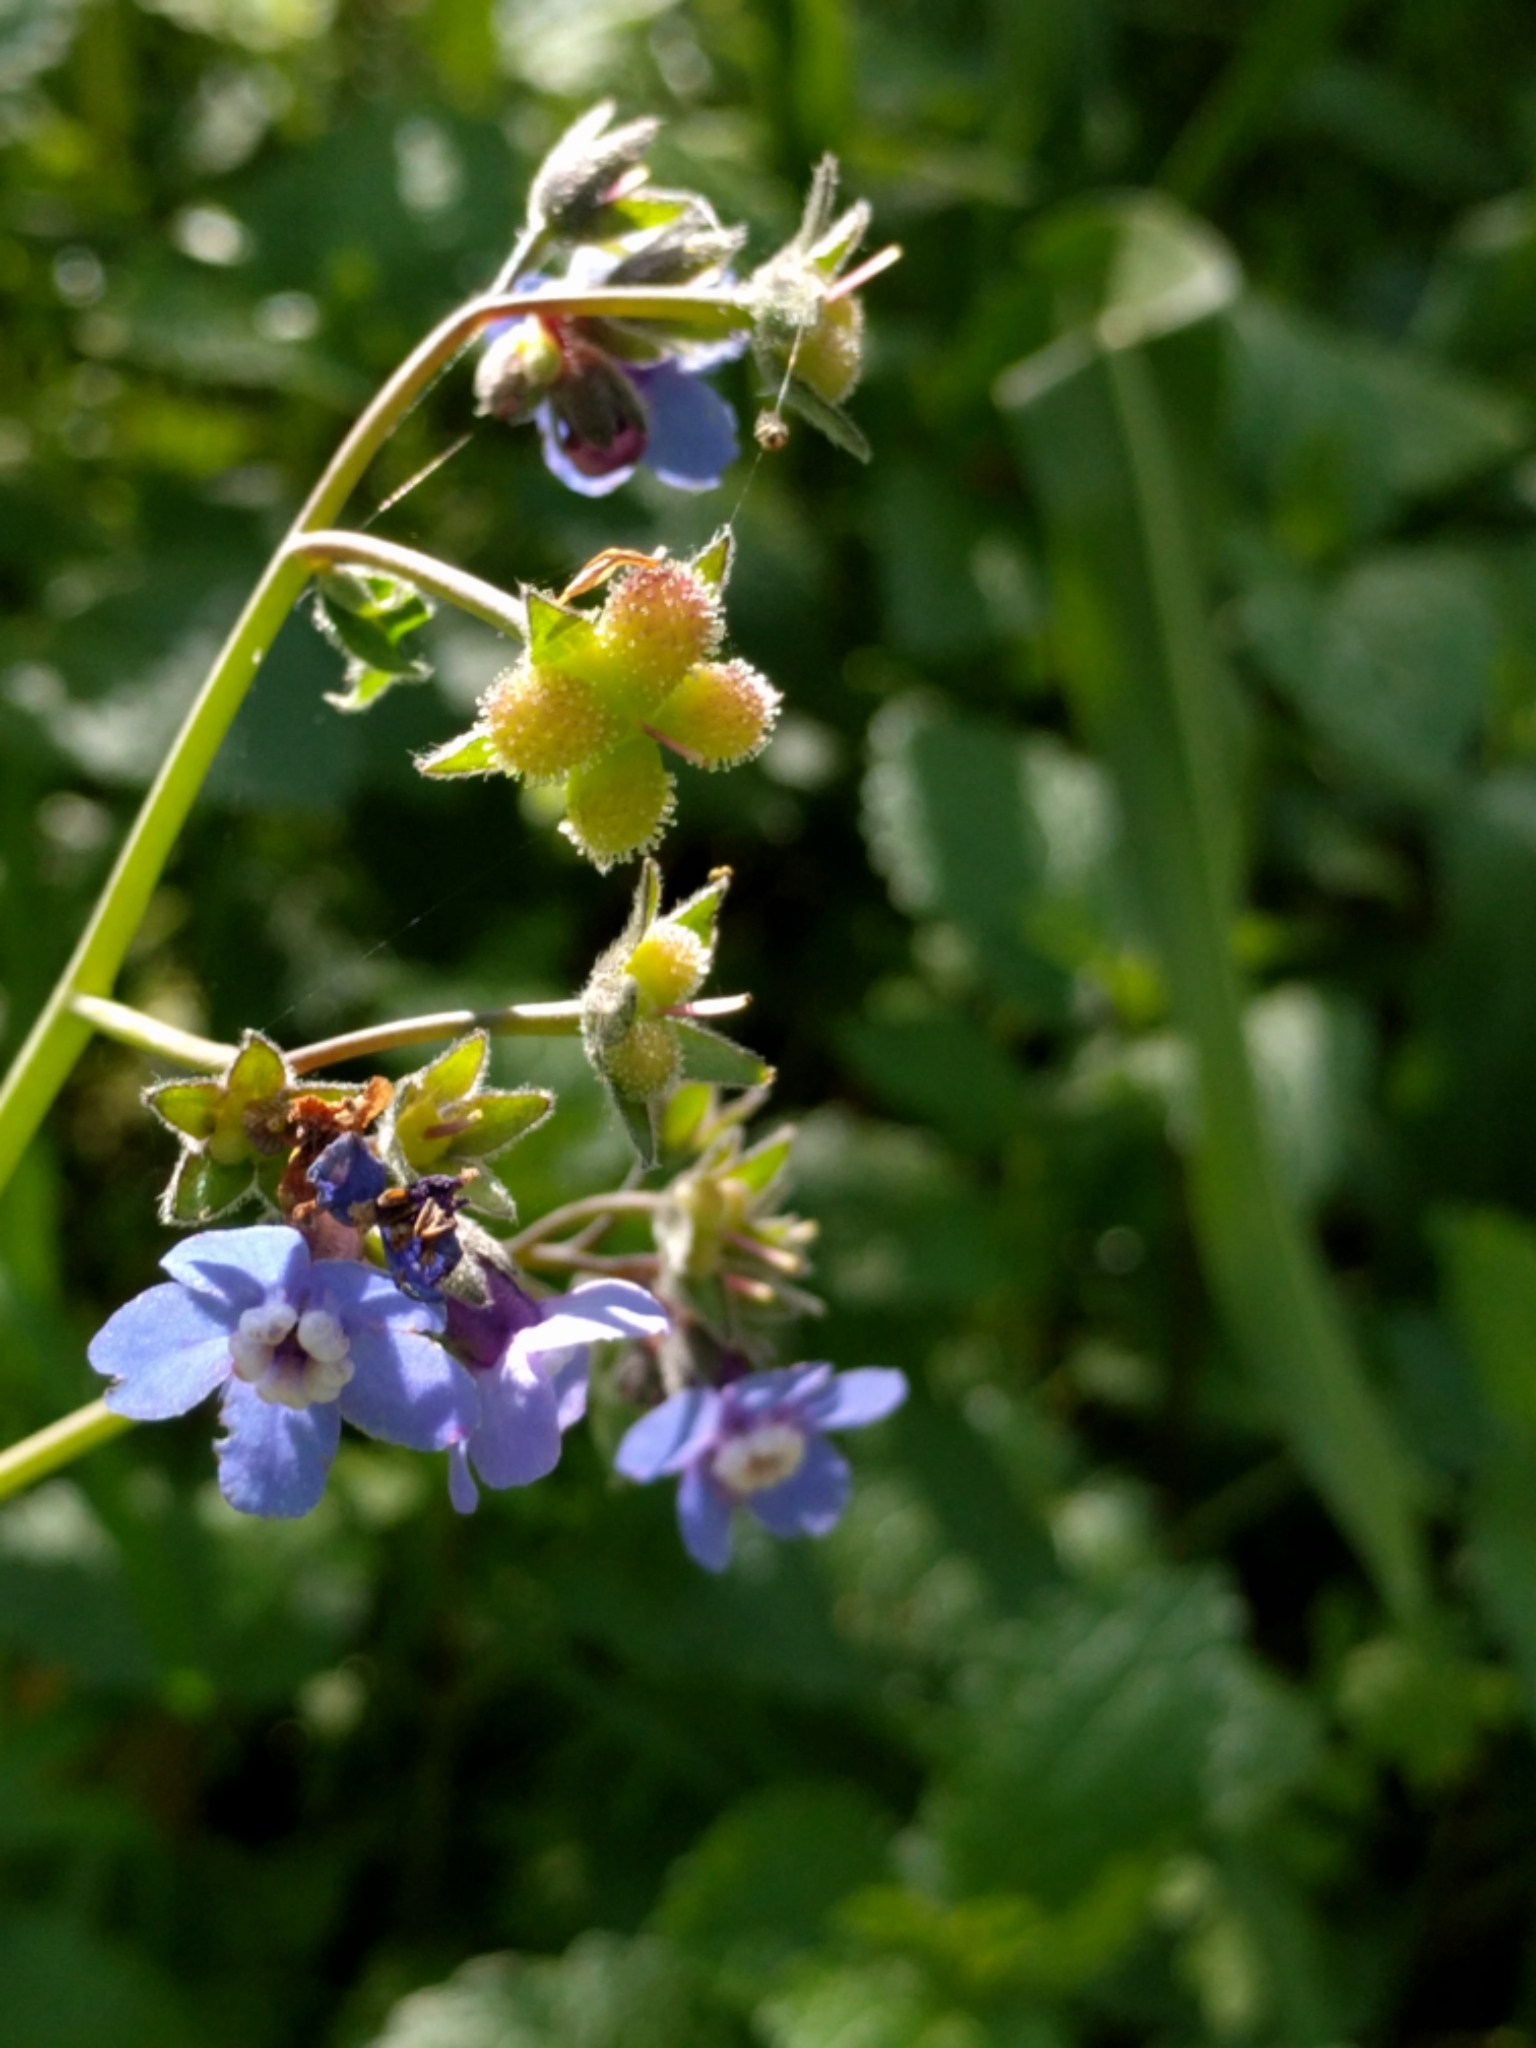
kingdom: Plantae
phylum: Tracheophyta
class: Magnoliopsida
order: Boraginales
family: Boraginaceae
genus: Adelinia
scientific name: Adelinia grande
